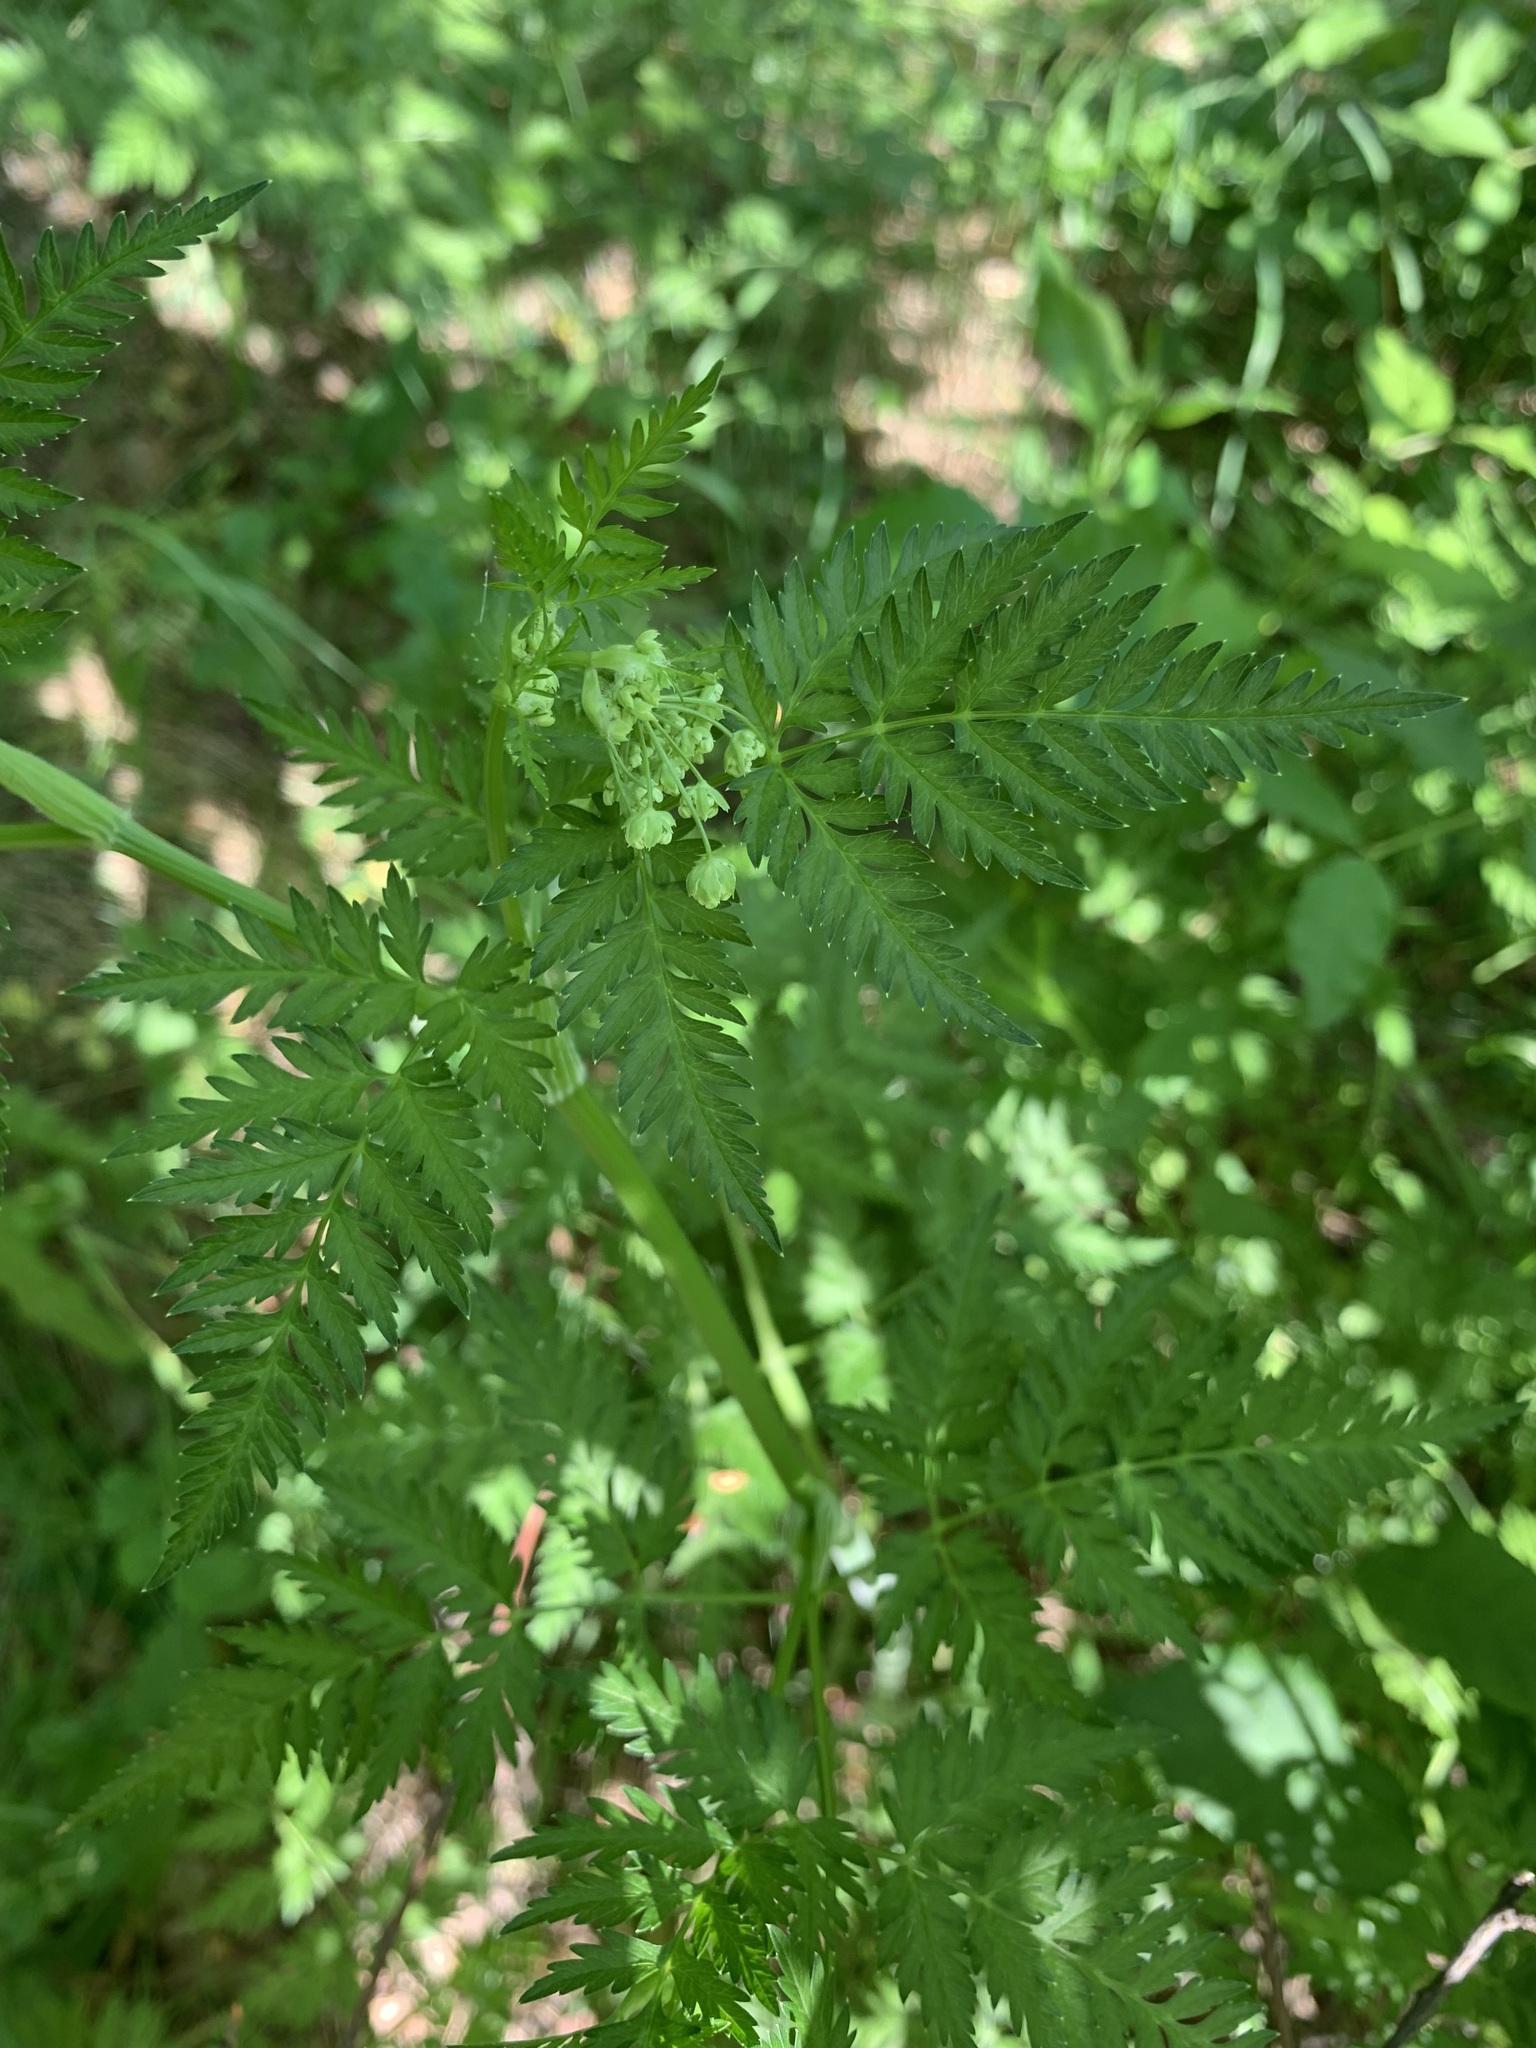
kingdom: Plantae
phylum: Tracheophyta
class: Magnoliopsida
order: Apiales
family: Apiaceae
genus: Anthriscus
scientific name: Anthriscus sylvestris
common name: Cow parsley
